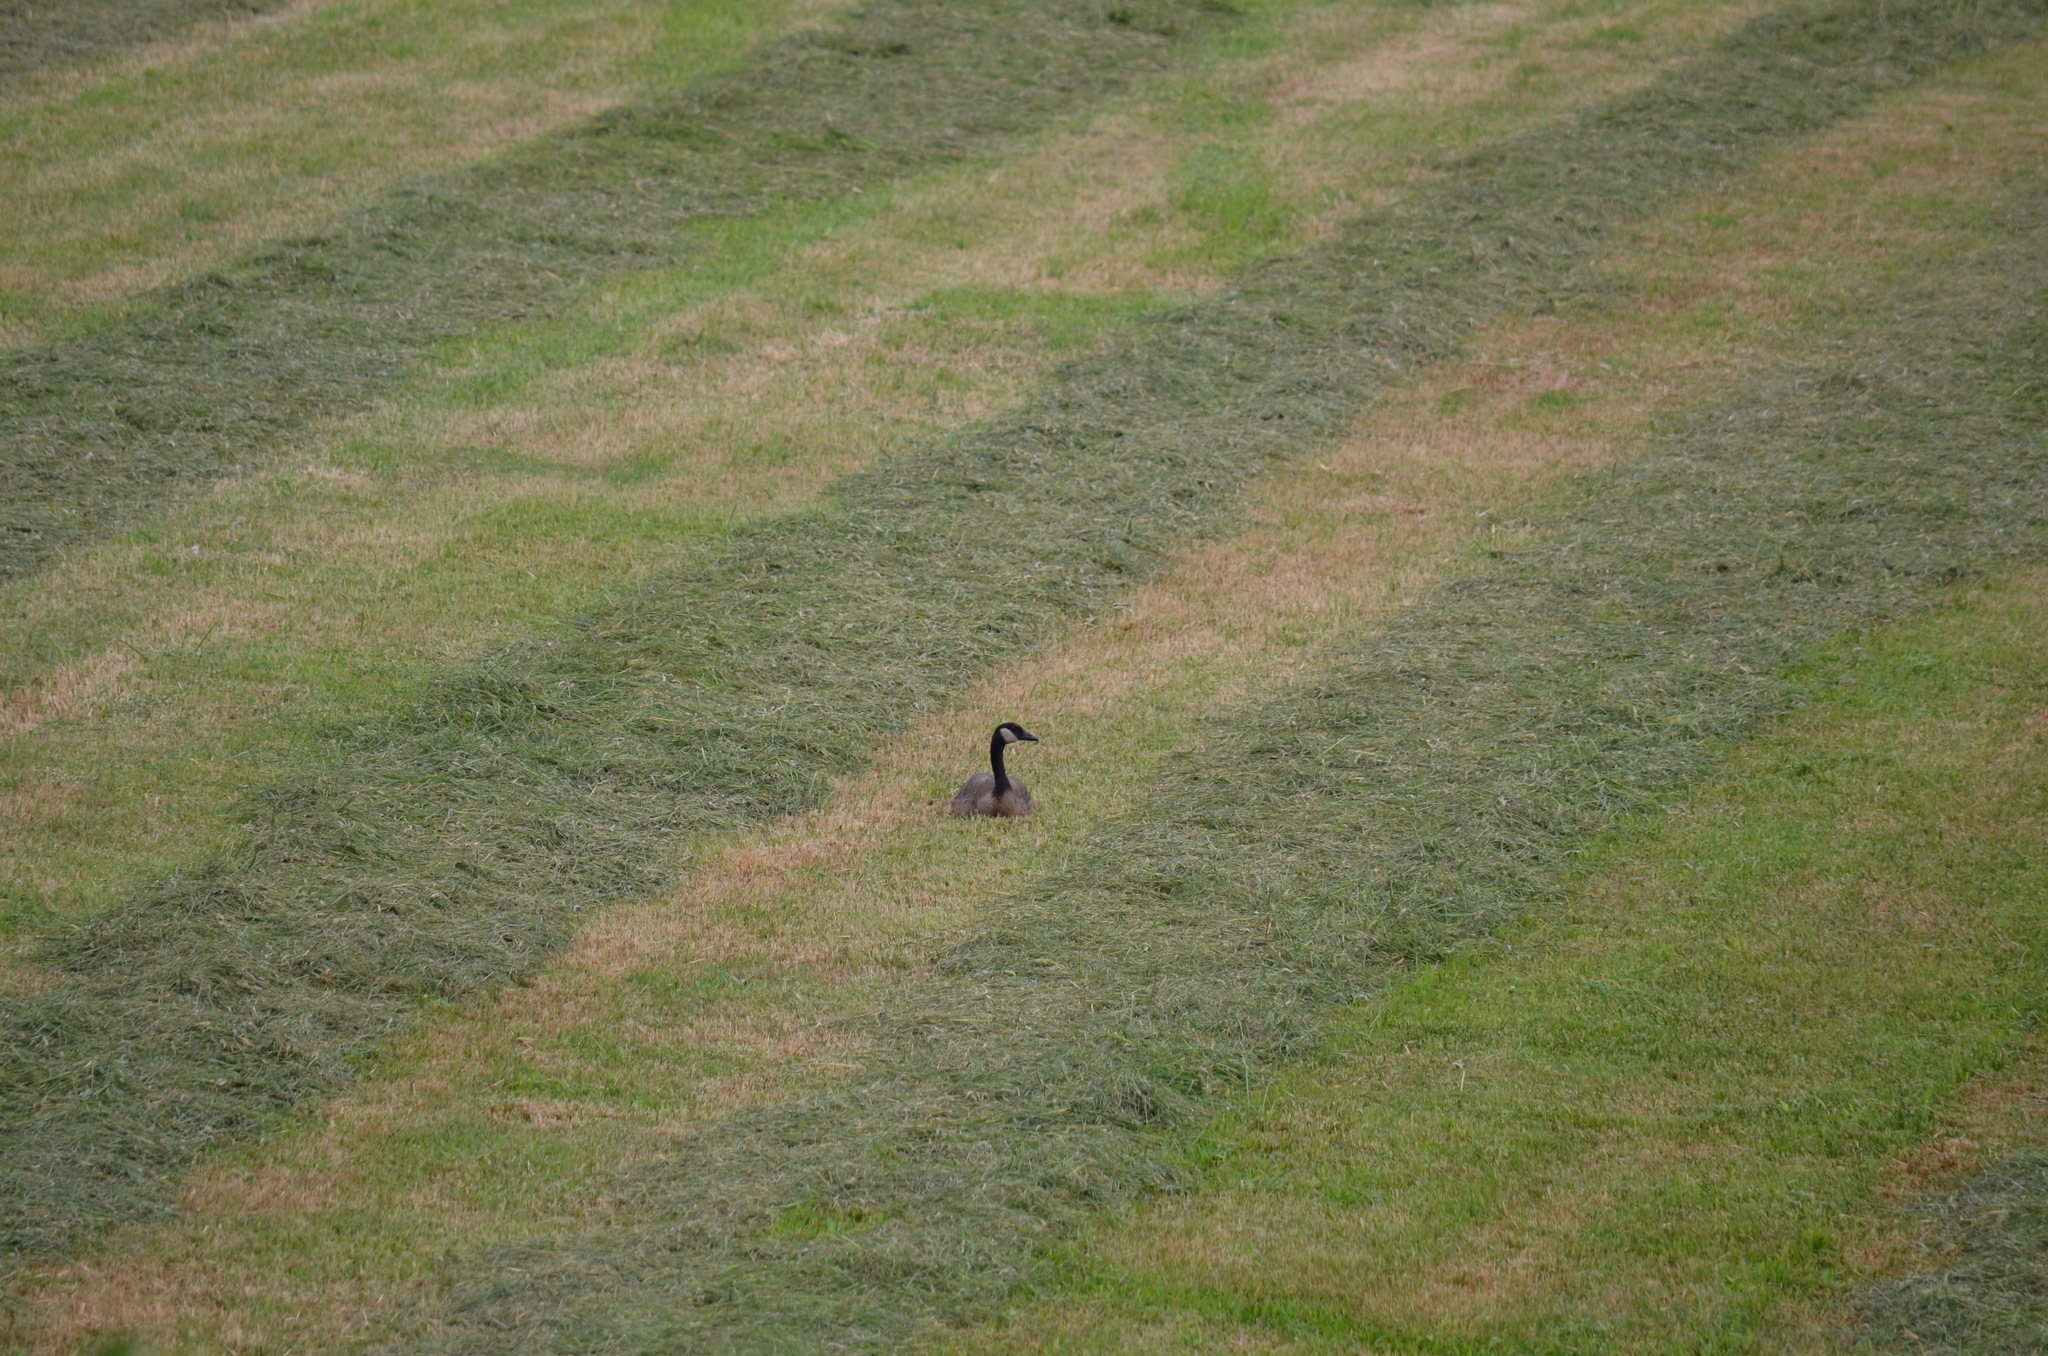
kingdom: Animalia
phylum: Chordata
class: Aves
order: Anseriformes
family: Anatidae
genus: Branta
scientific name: Branta canadensis
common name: Canada goose
